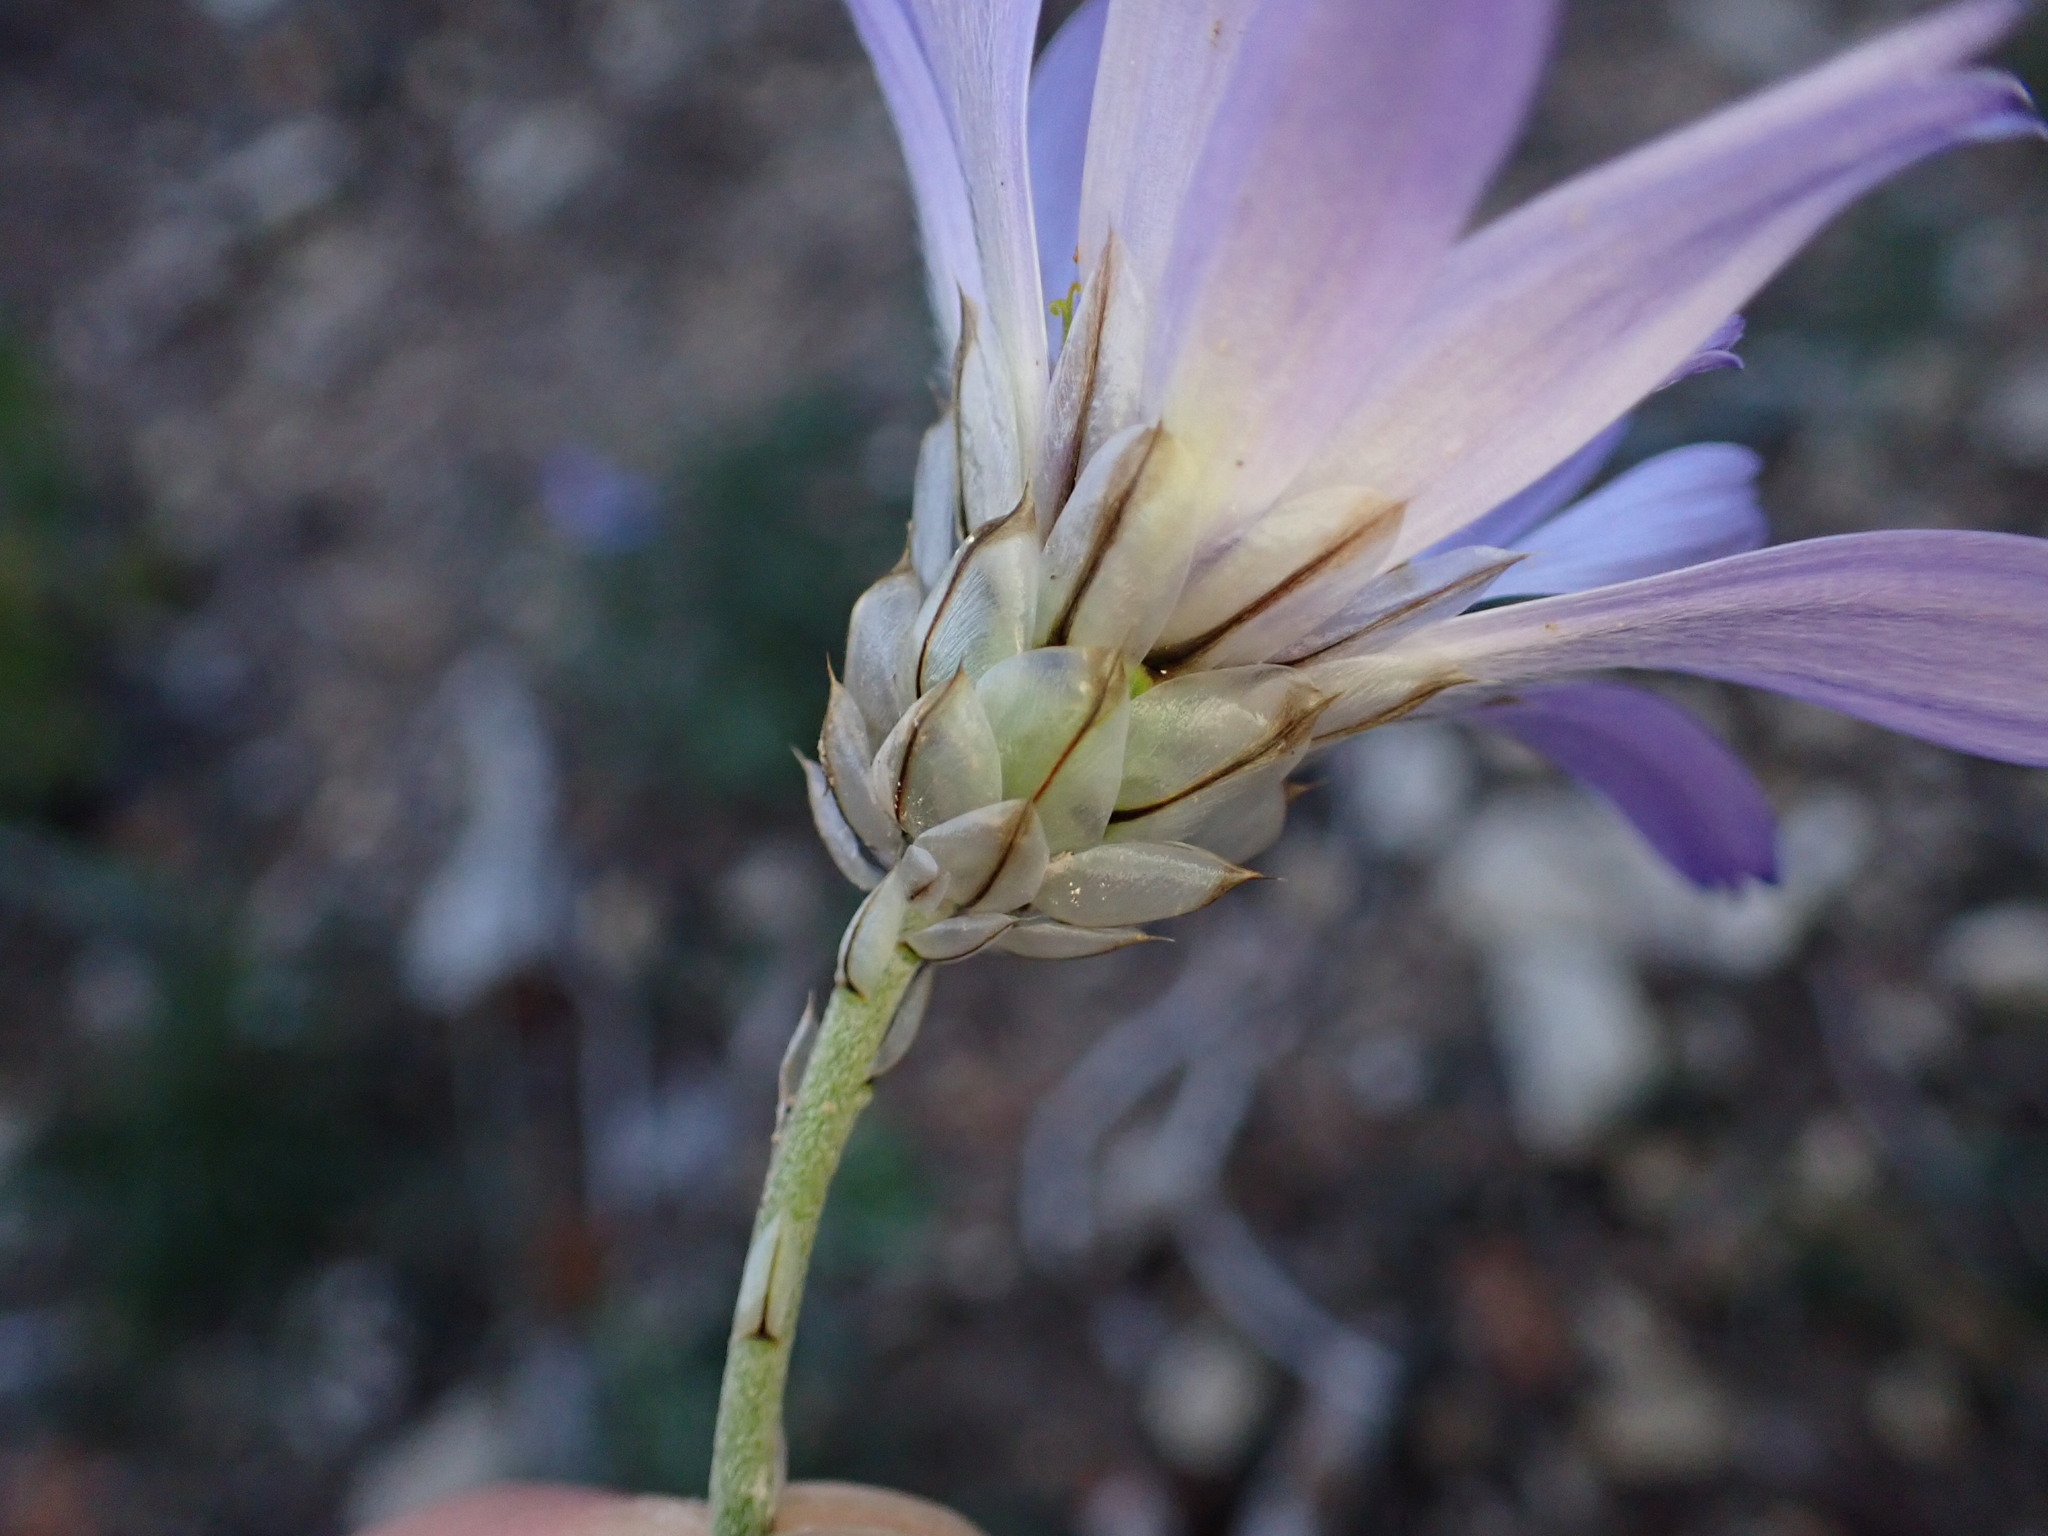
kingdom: Plantae
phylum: Tracheophyta
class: Magnoliopsida
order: Asterales
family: Asteraceae
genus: Catananche
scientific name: Catananche caerulea
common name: Blue cupidone
